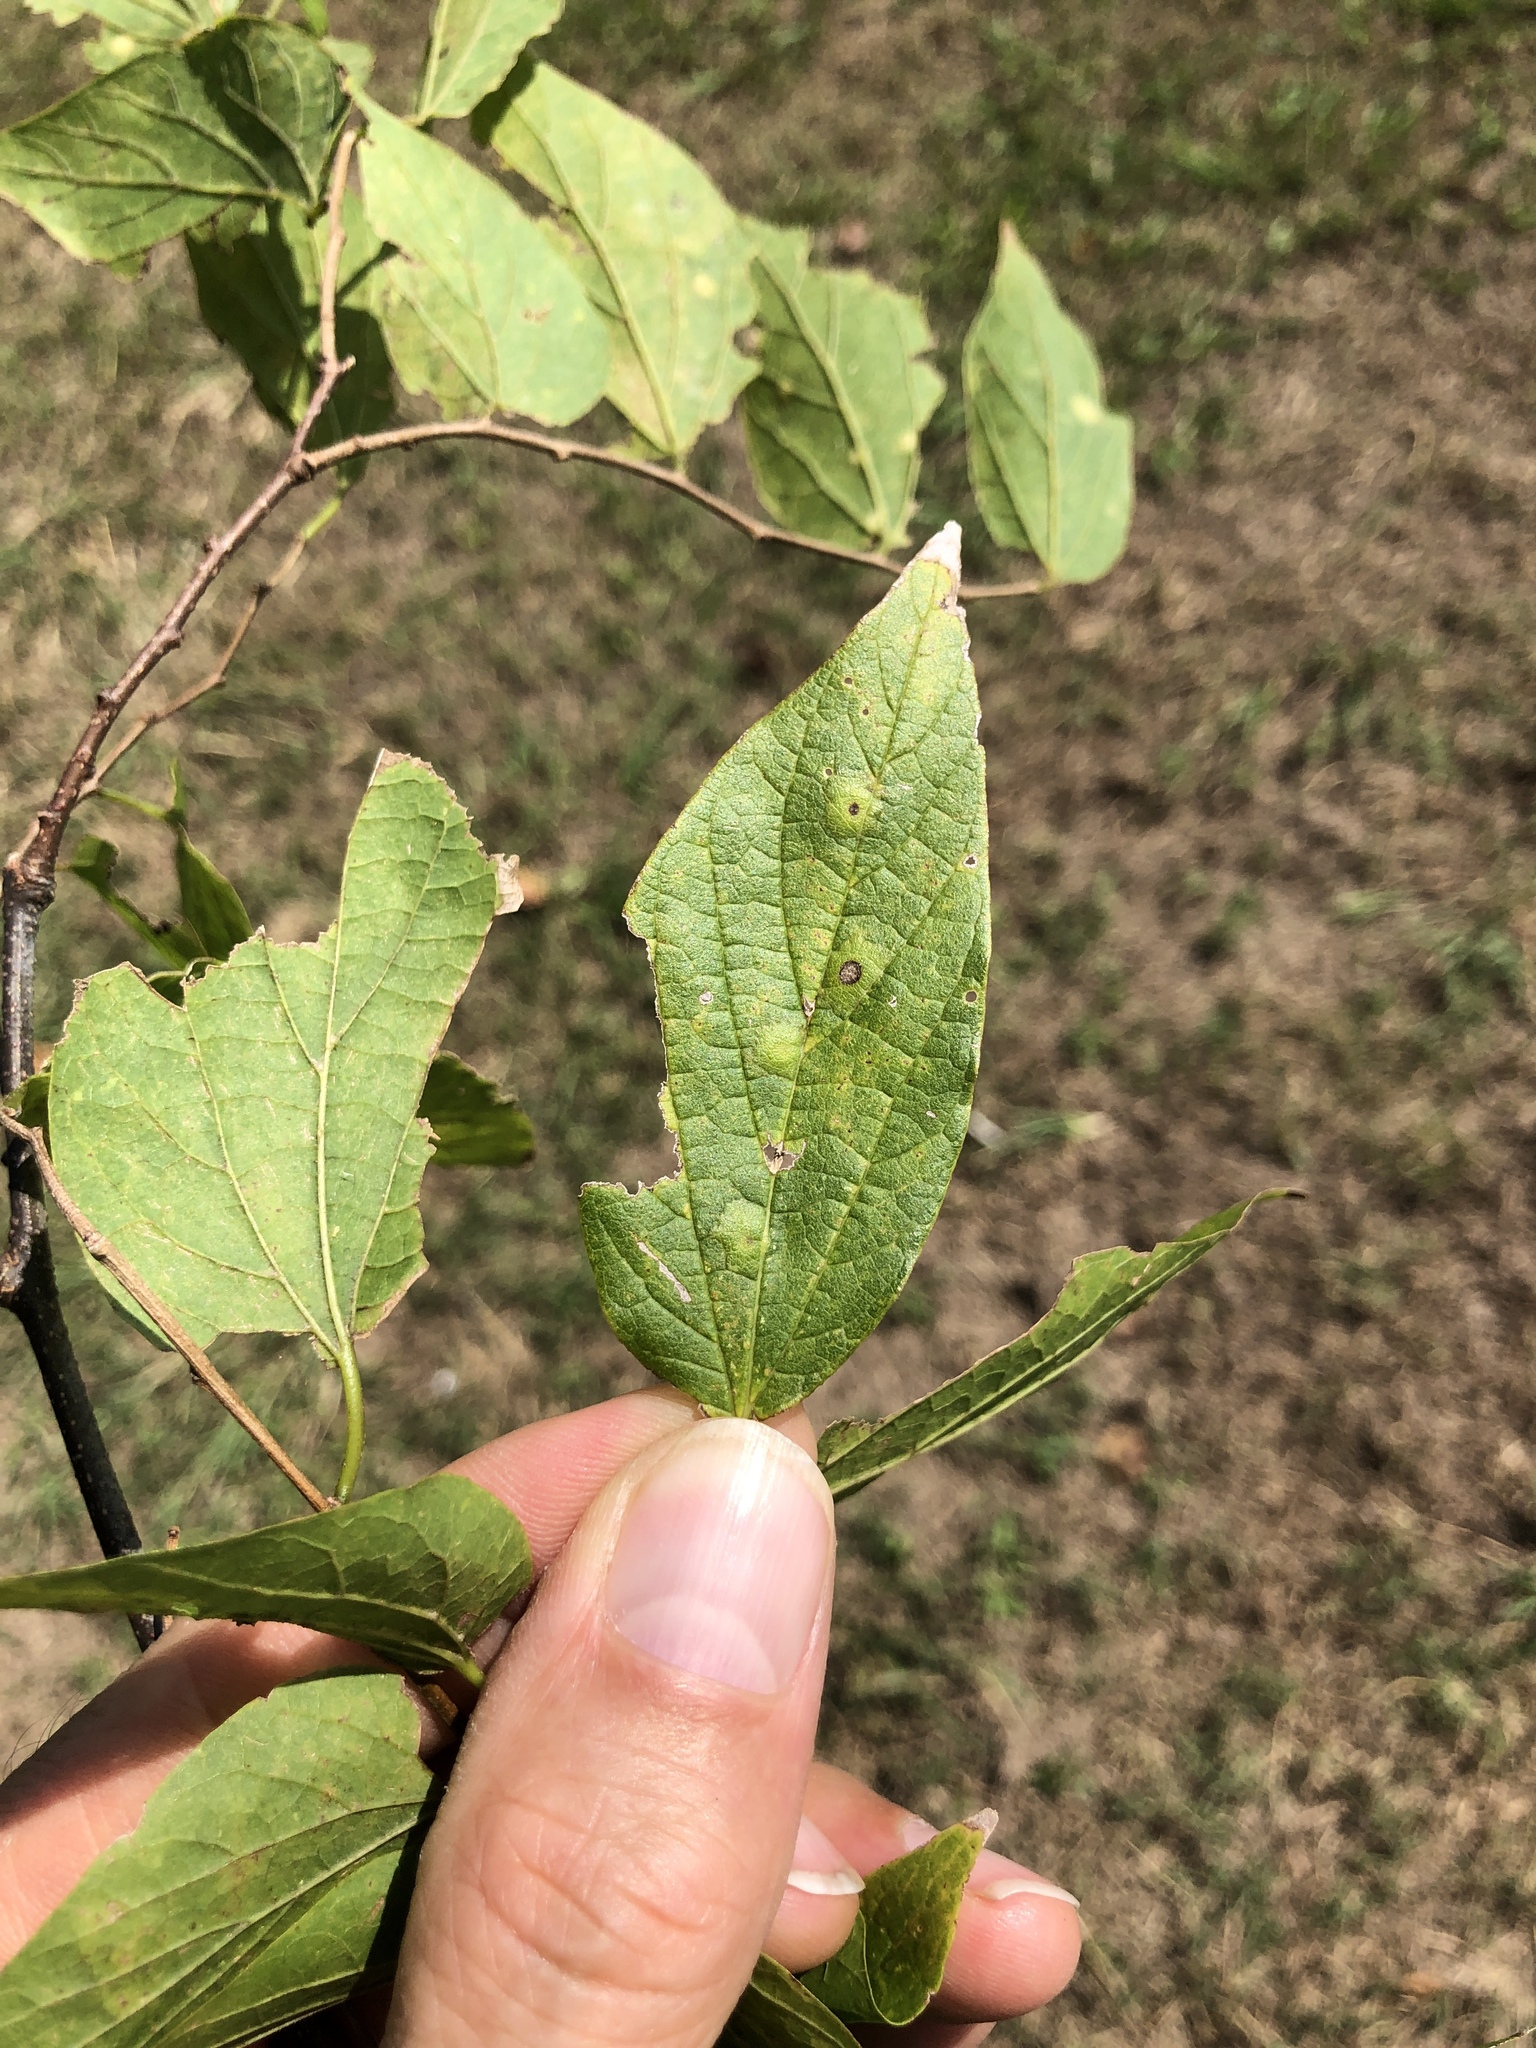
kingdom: Animalia
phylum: Arthropoda
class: Insecta
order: Hemiptera
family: Aphalaridae
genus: Pachypsylla
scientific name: Pachypsylla celtidisvesicula
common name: Hackberry blister gall psyllid
